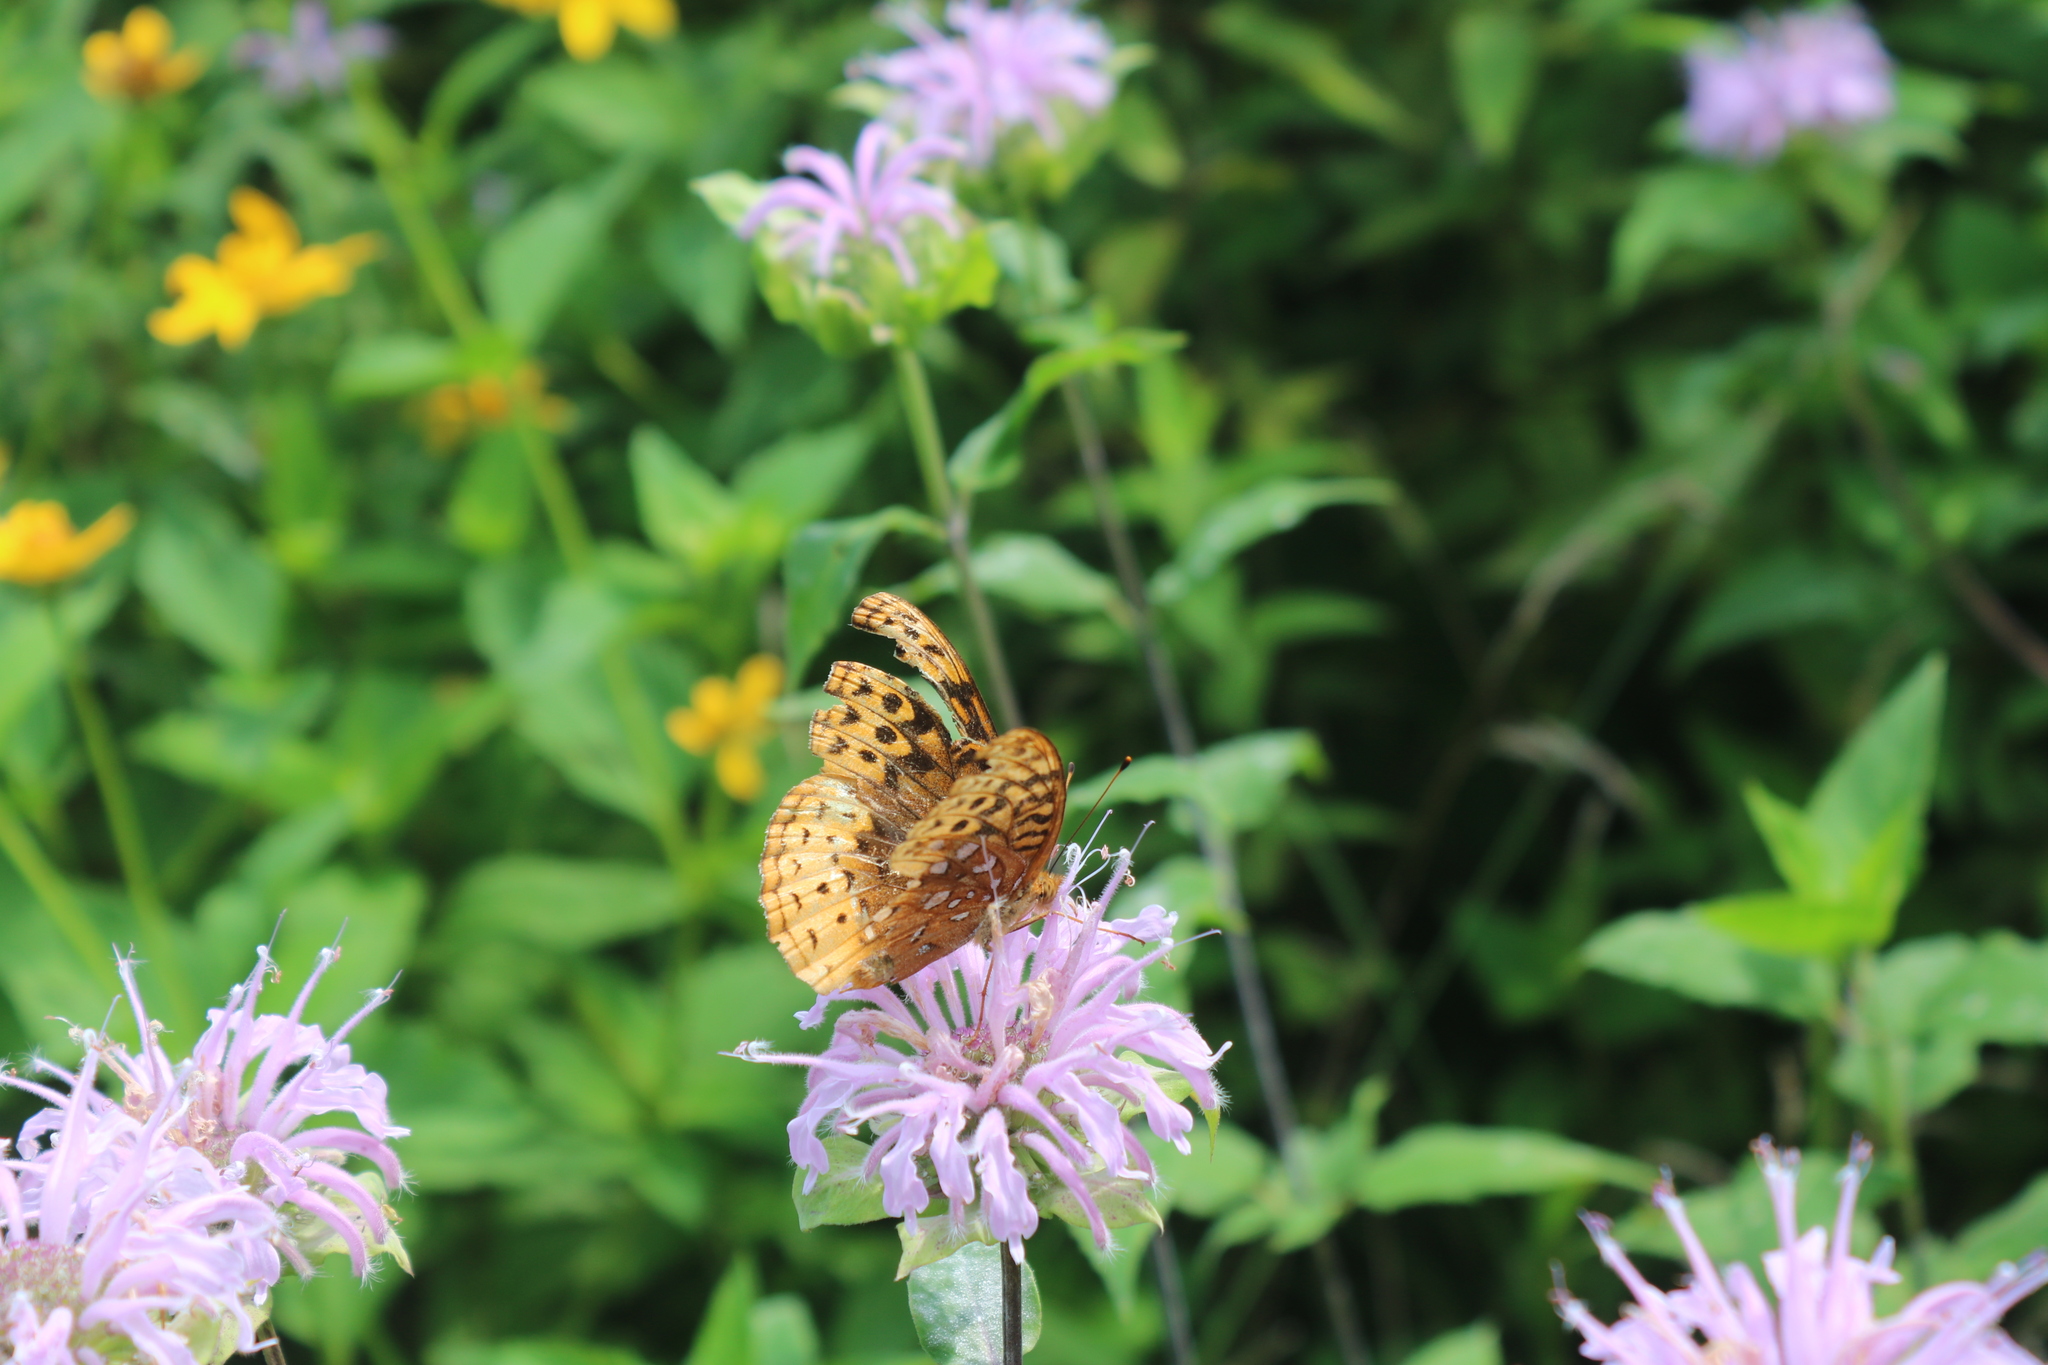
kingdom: Animalia
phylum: Arthropoda
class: Insecta
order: Lepidoptera
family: Nymphalidae
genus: Speyeria
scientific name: Speyeria cybele
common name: Great spangled fritillary
